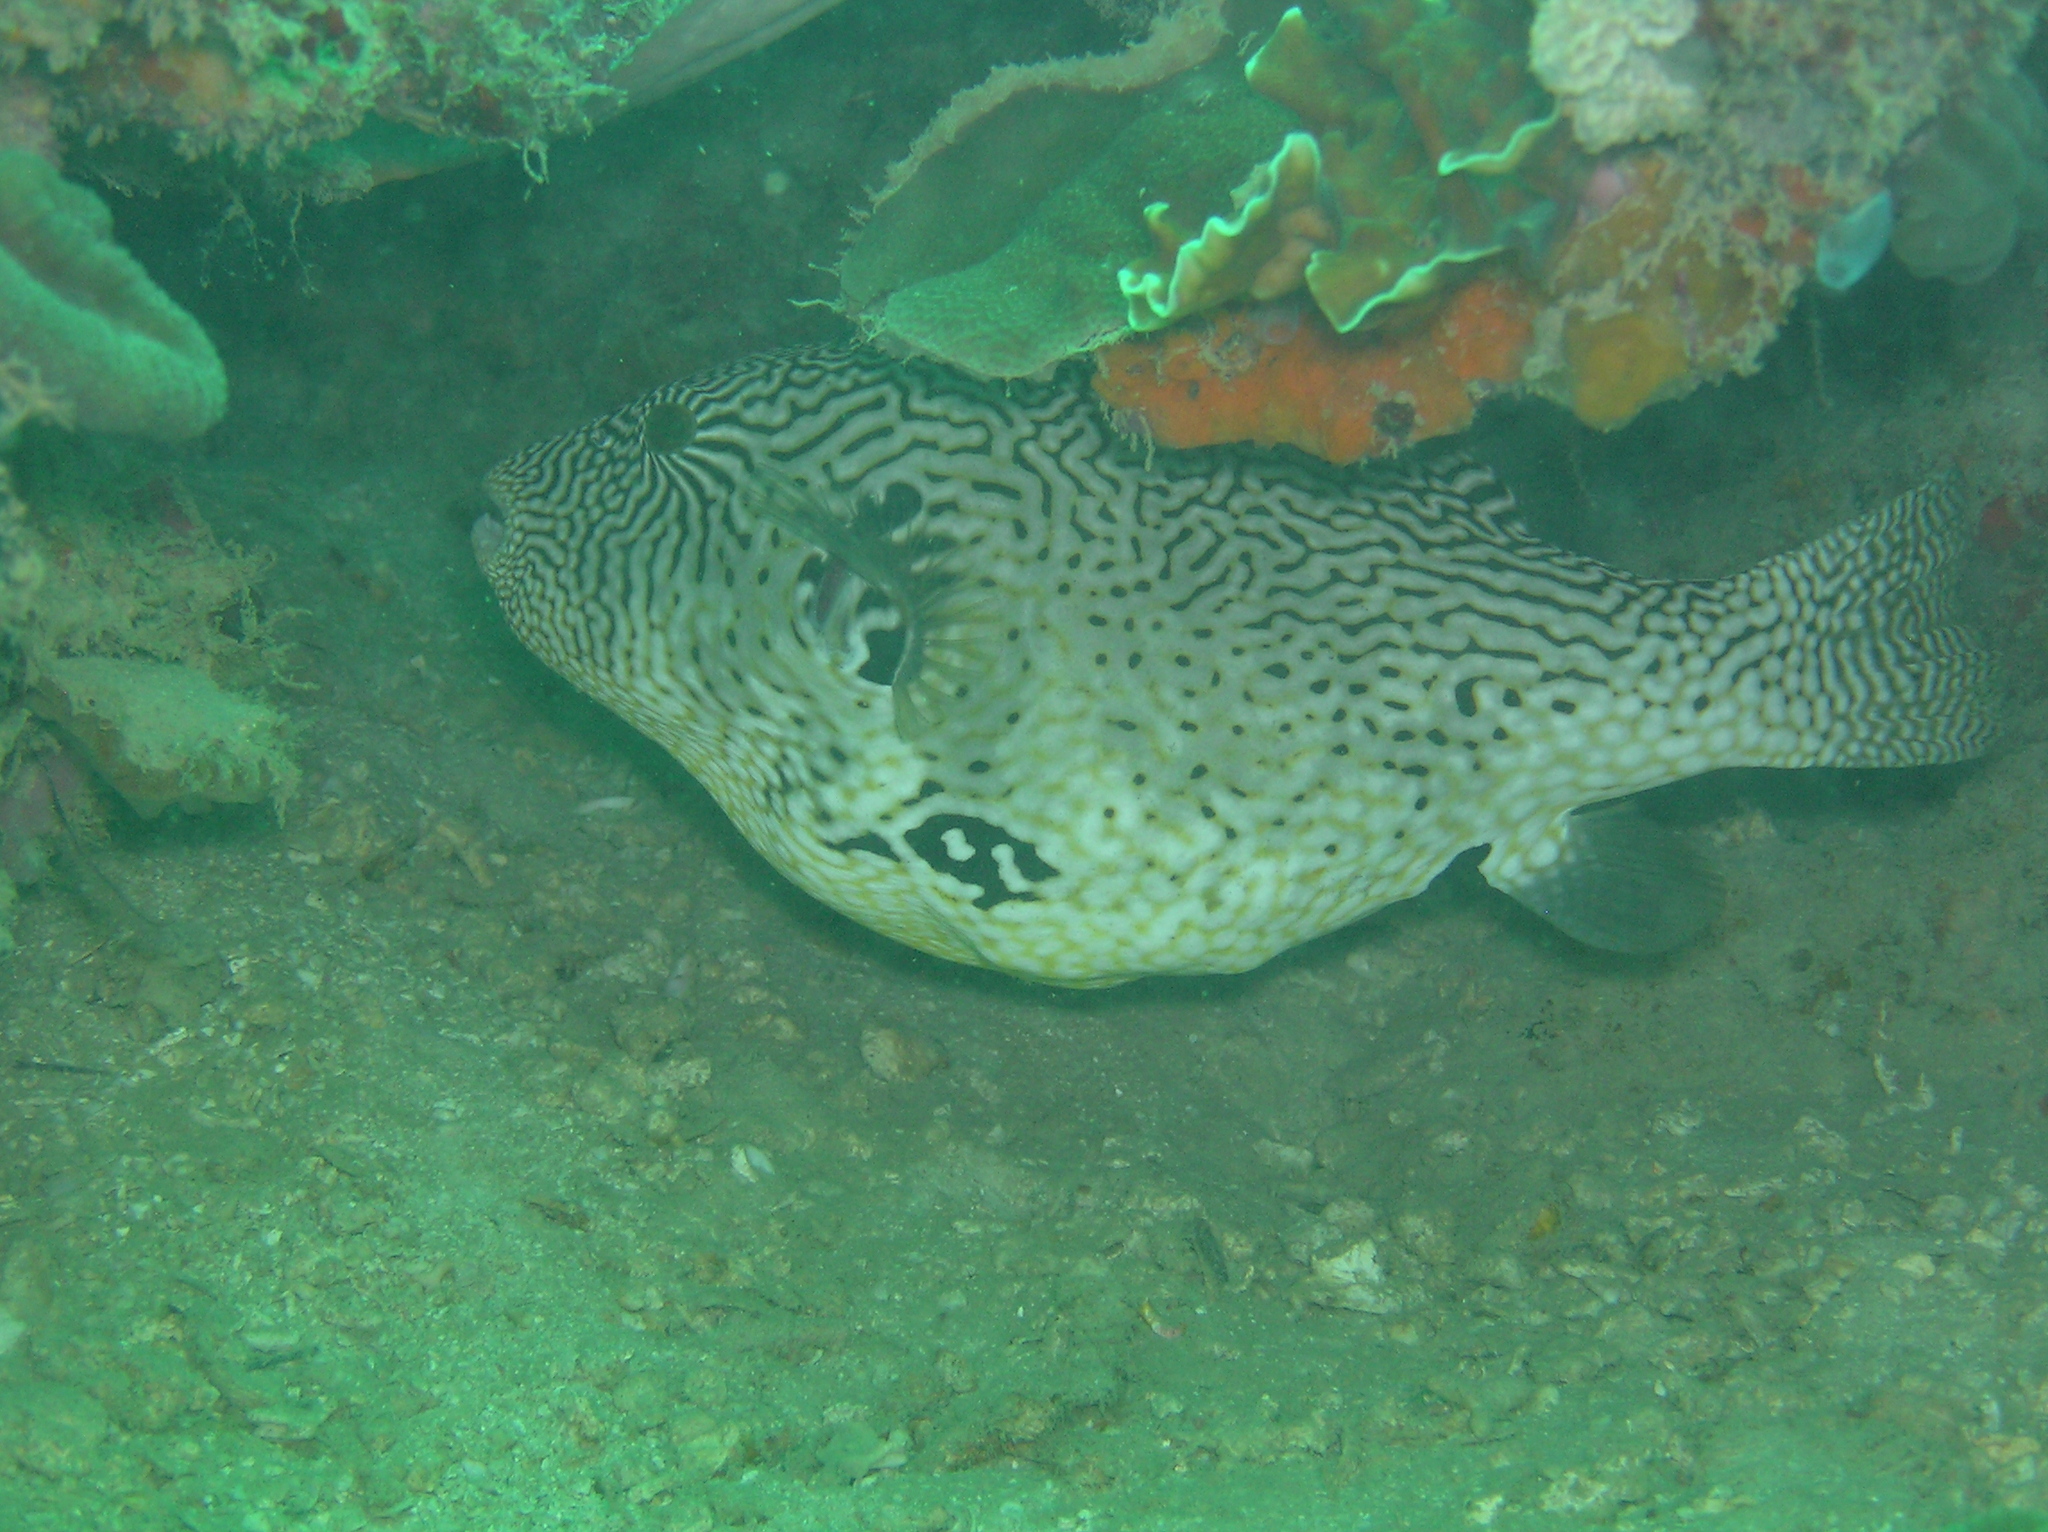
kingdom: Animalia
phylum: Chordata
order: Tetraodontiformes
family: Tetraodontidae
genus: Arothron
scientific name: Arothron mappa
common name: Map blaasop
